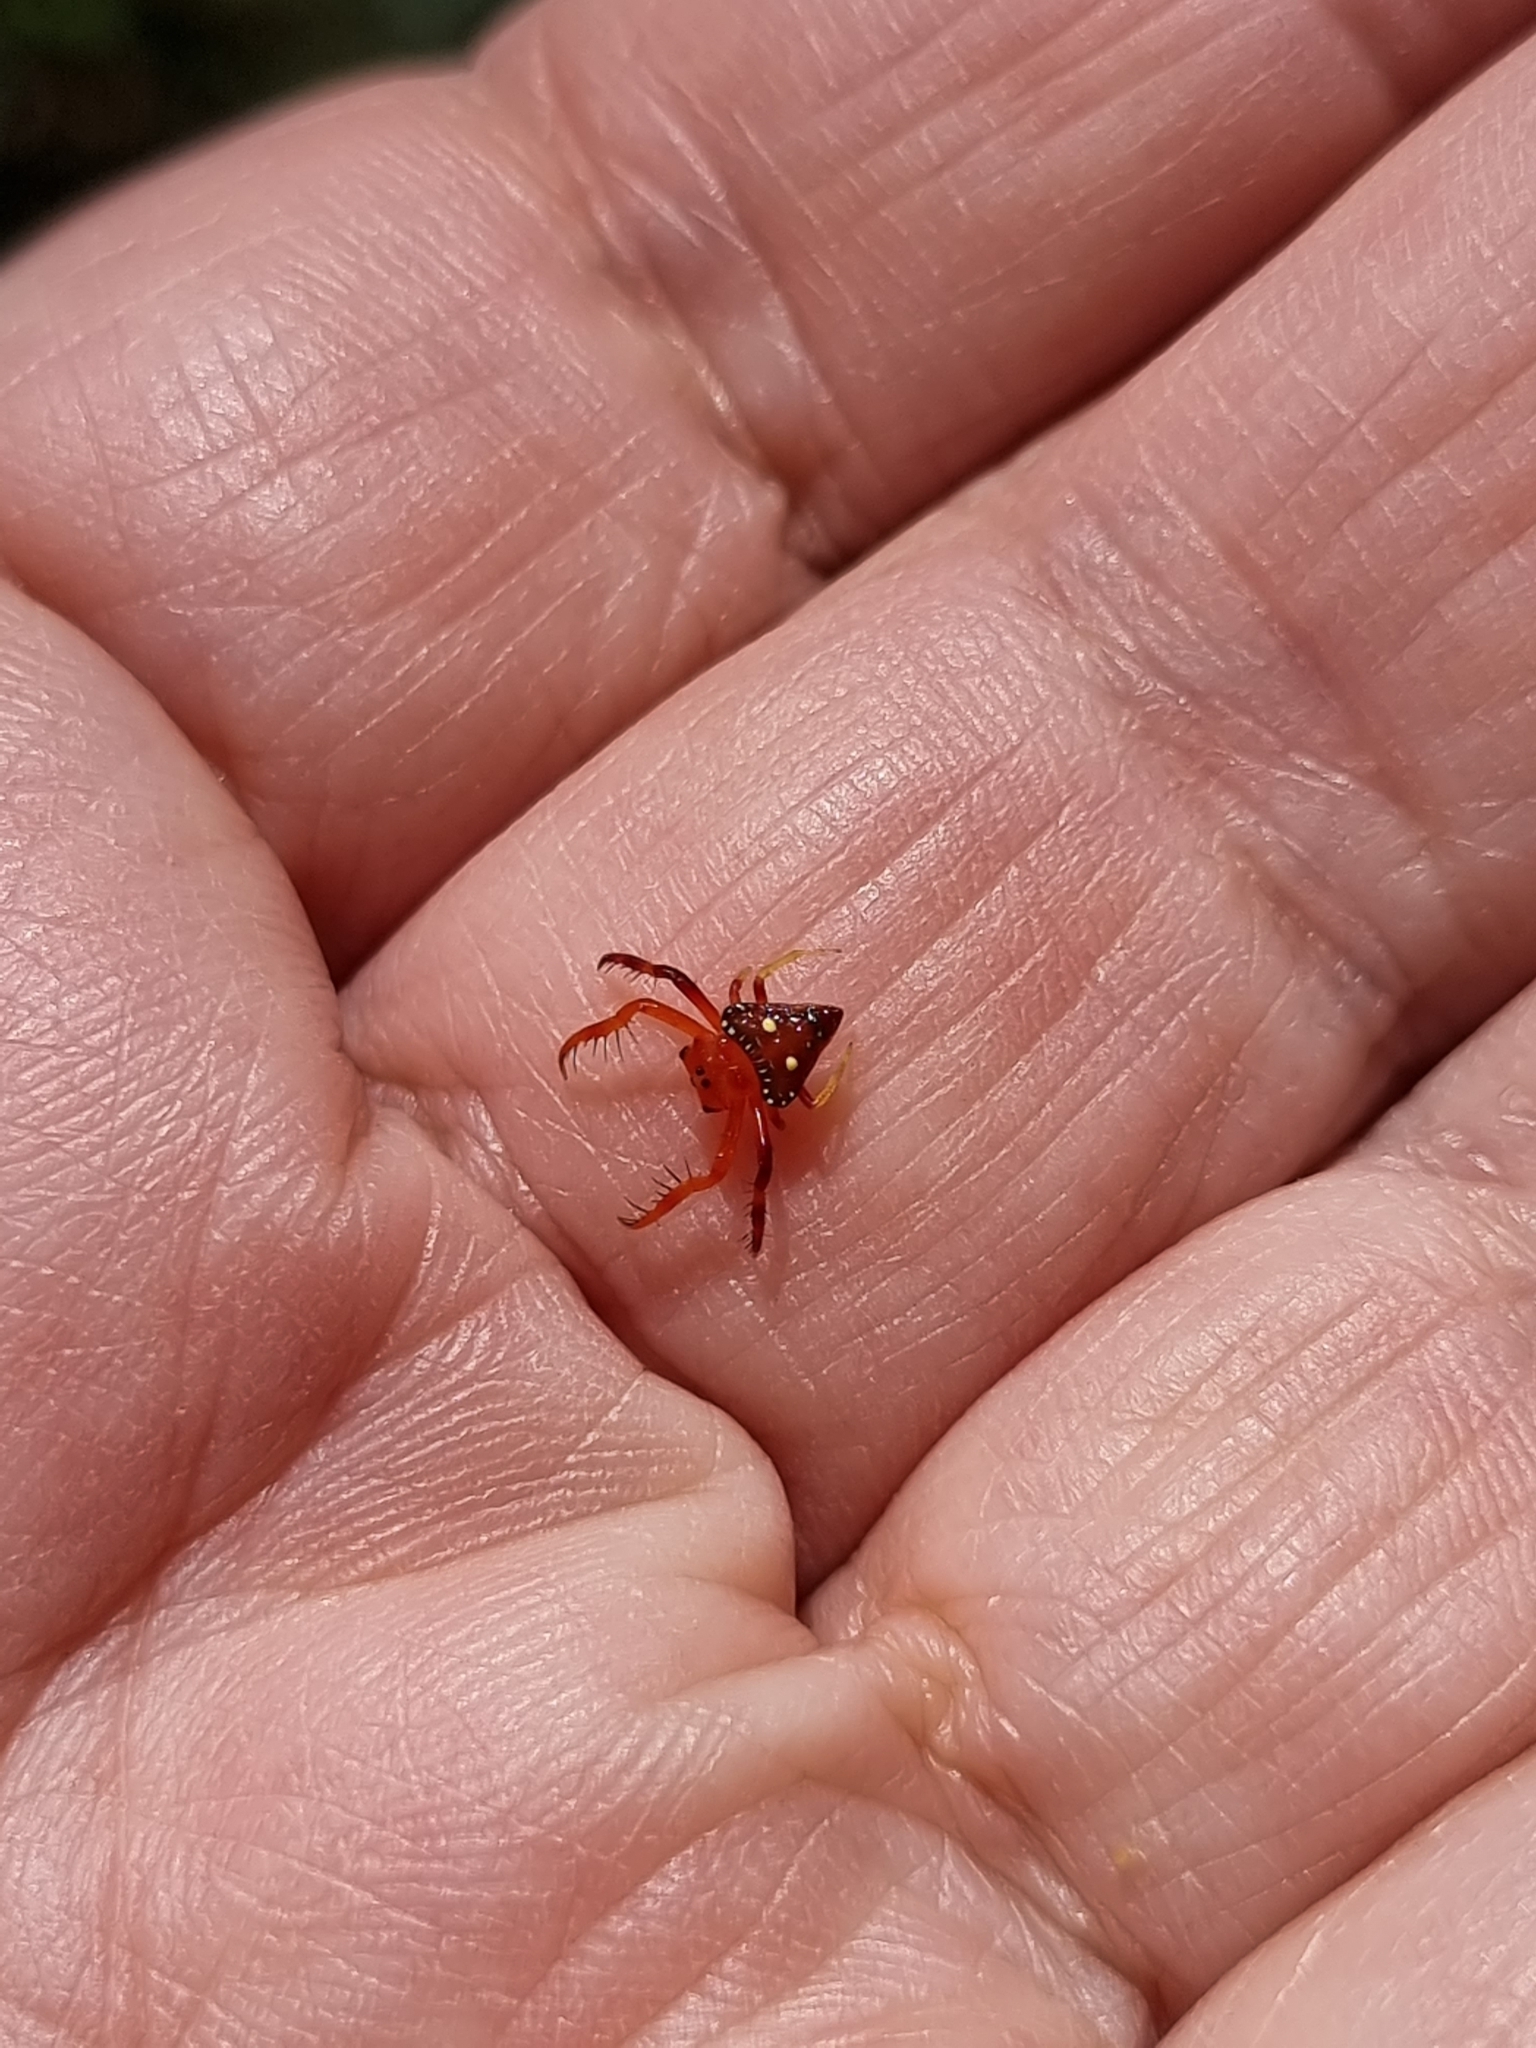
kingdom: Animalia
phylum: Arthropoda
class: Arachnida
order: Araneae
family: Arkyidae
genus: Arkys
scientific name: Arkys lancearius
